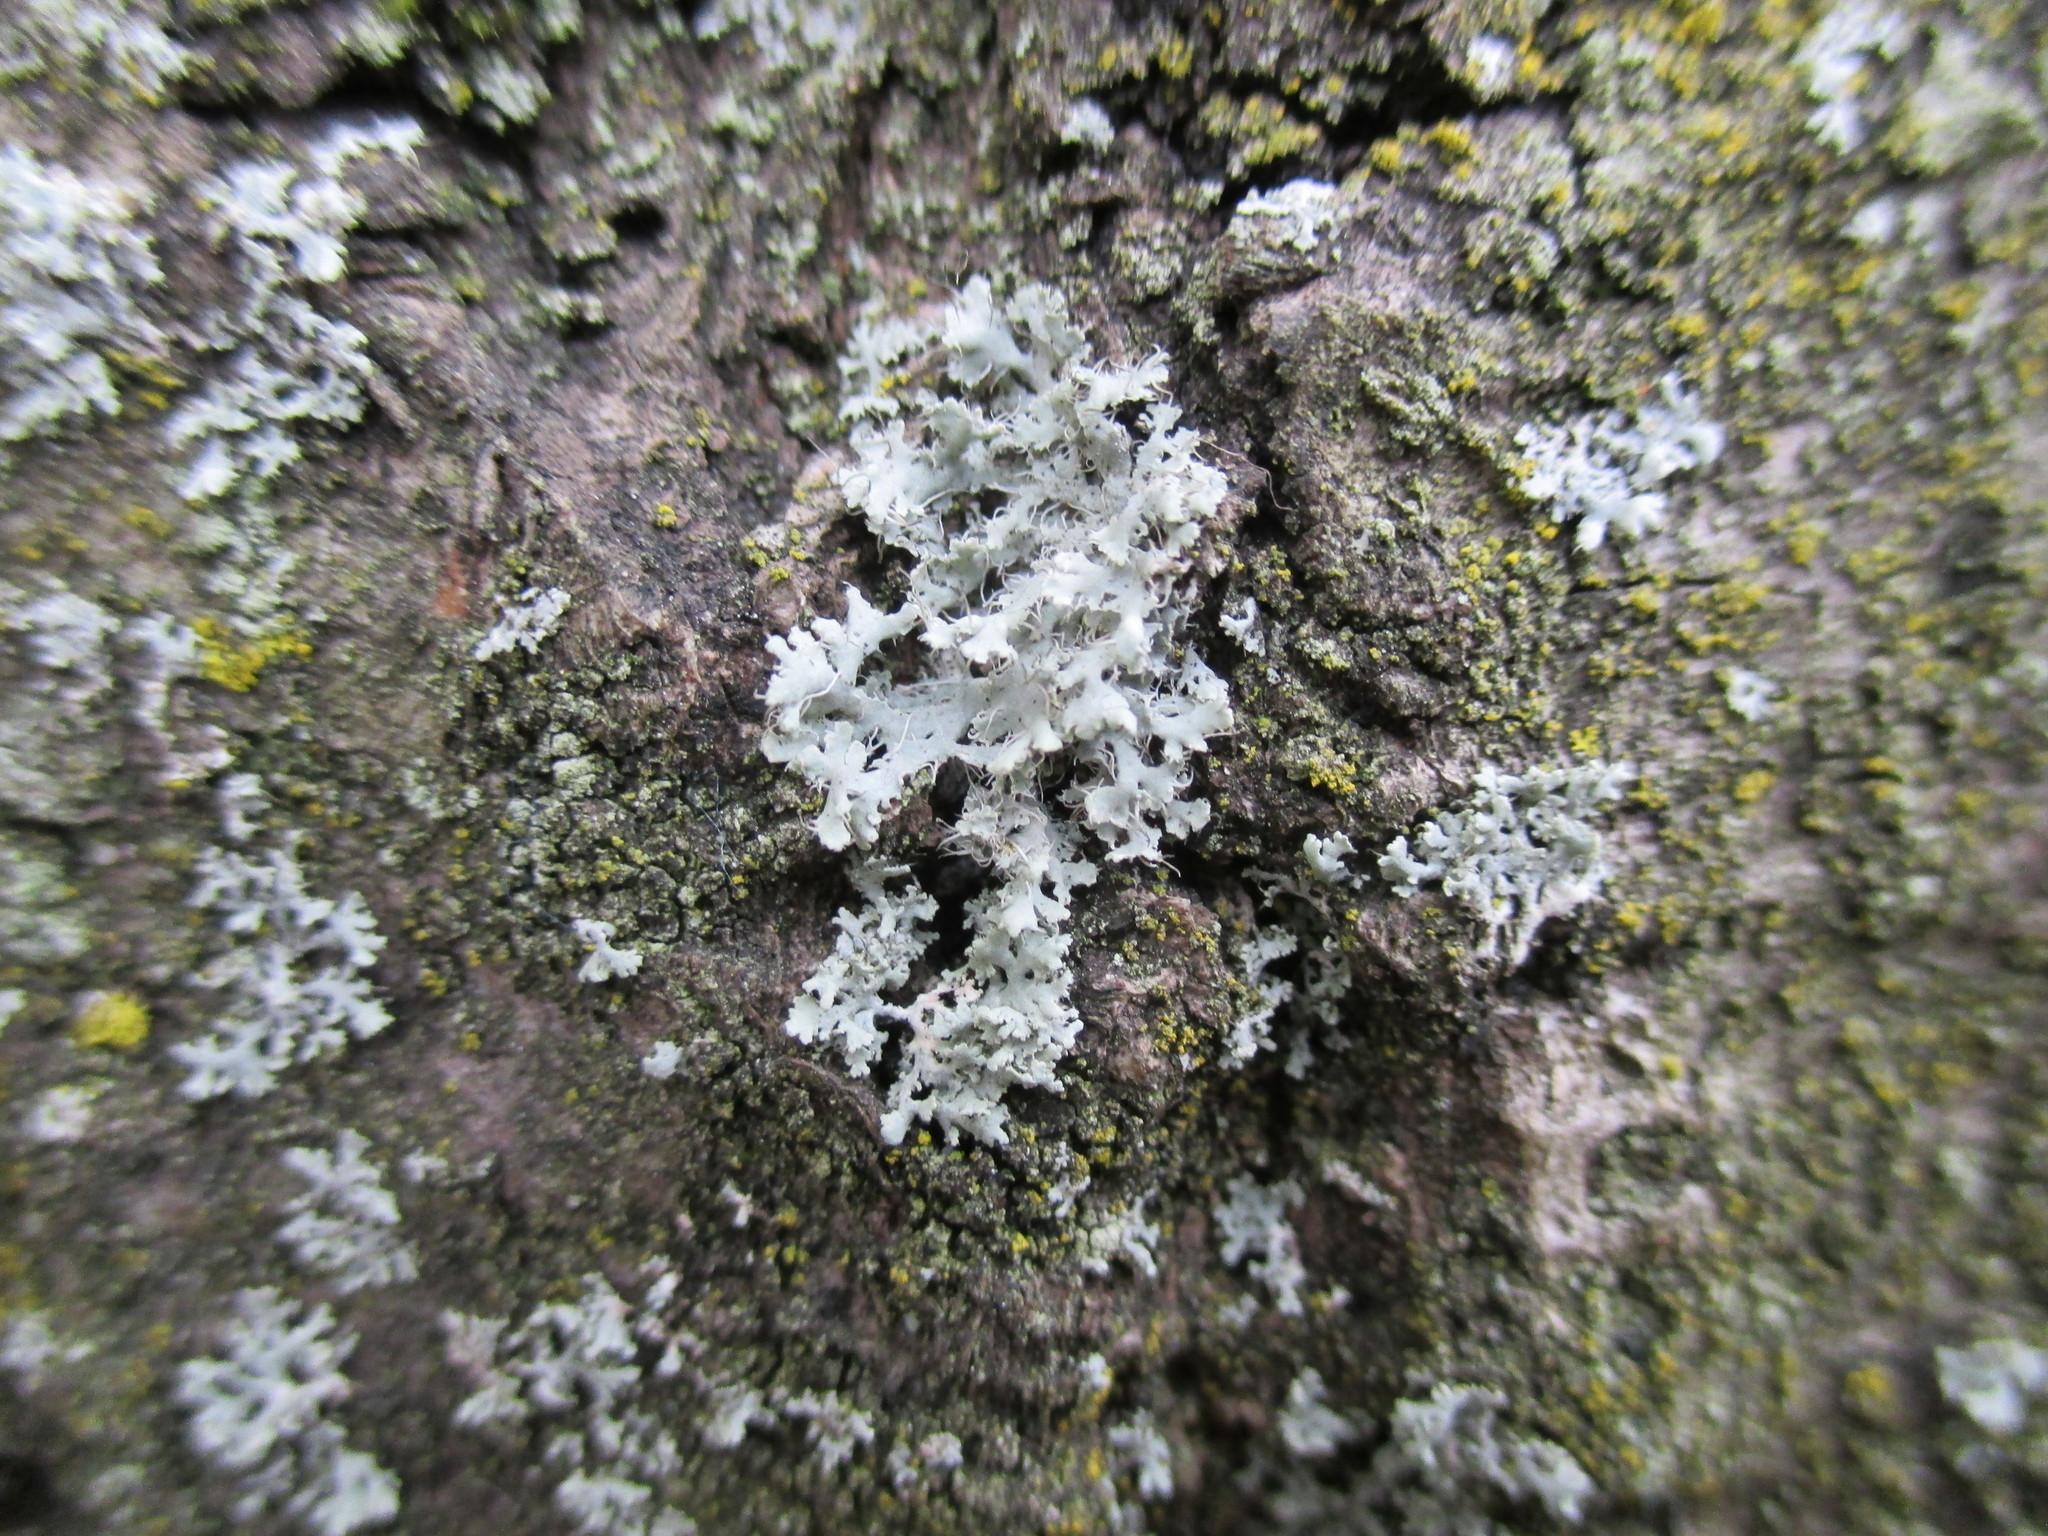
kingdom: Fungi
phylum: Ascomycota
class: Lecanoromycetes
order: Caliciales
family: Physciaceae
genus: Physcia
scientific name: Physcia adscendens
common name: Hooded rosette lichen
